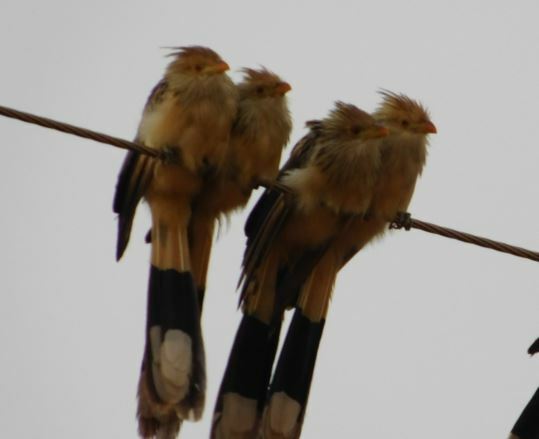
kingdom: Animalia
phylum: Chordata
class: Aves
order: Cuculiformes
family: Cuculidae
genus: Guira
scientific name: Guira guira
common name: Guira cuckoo
